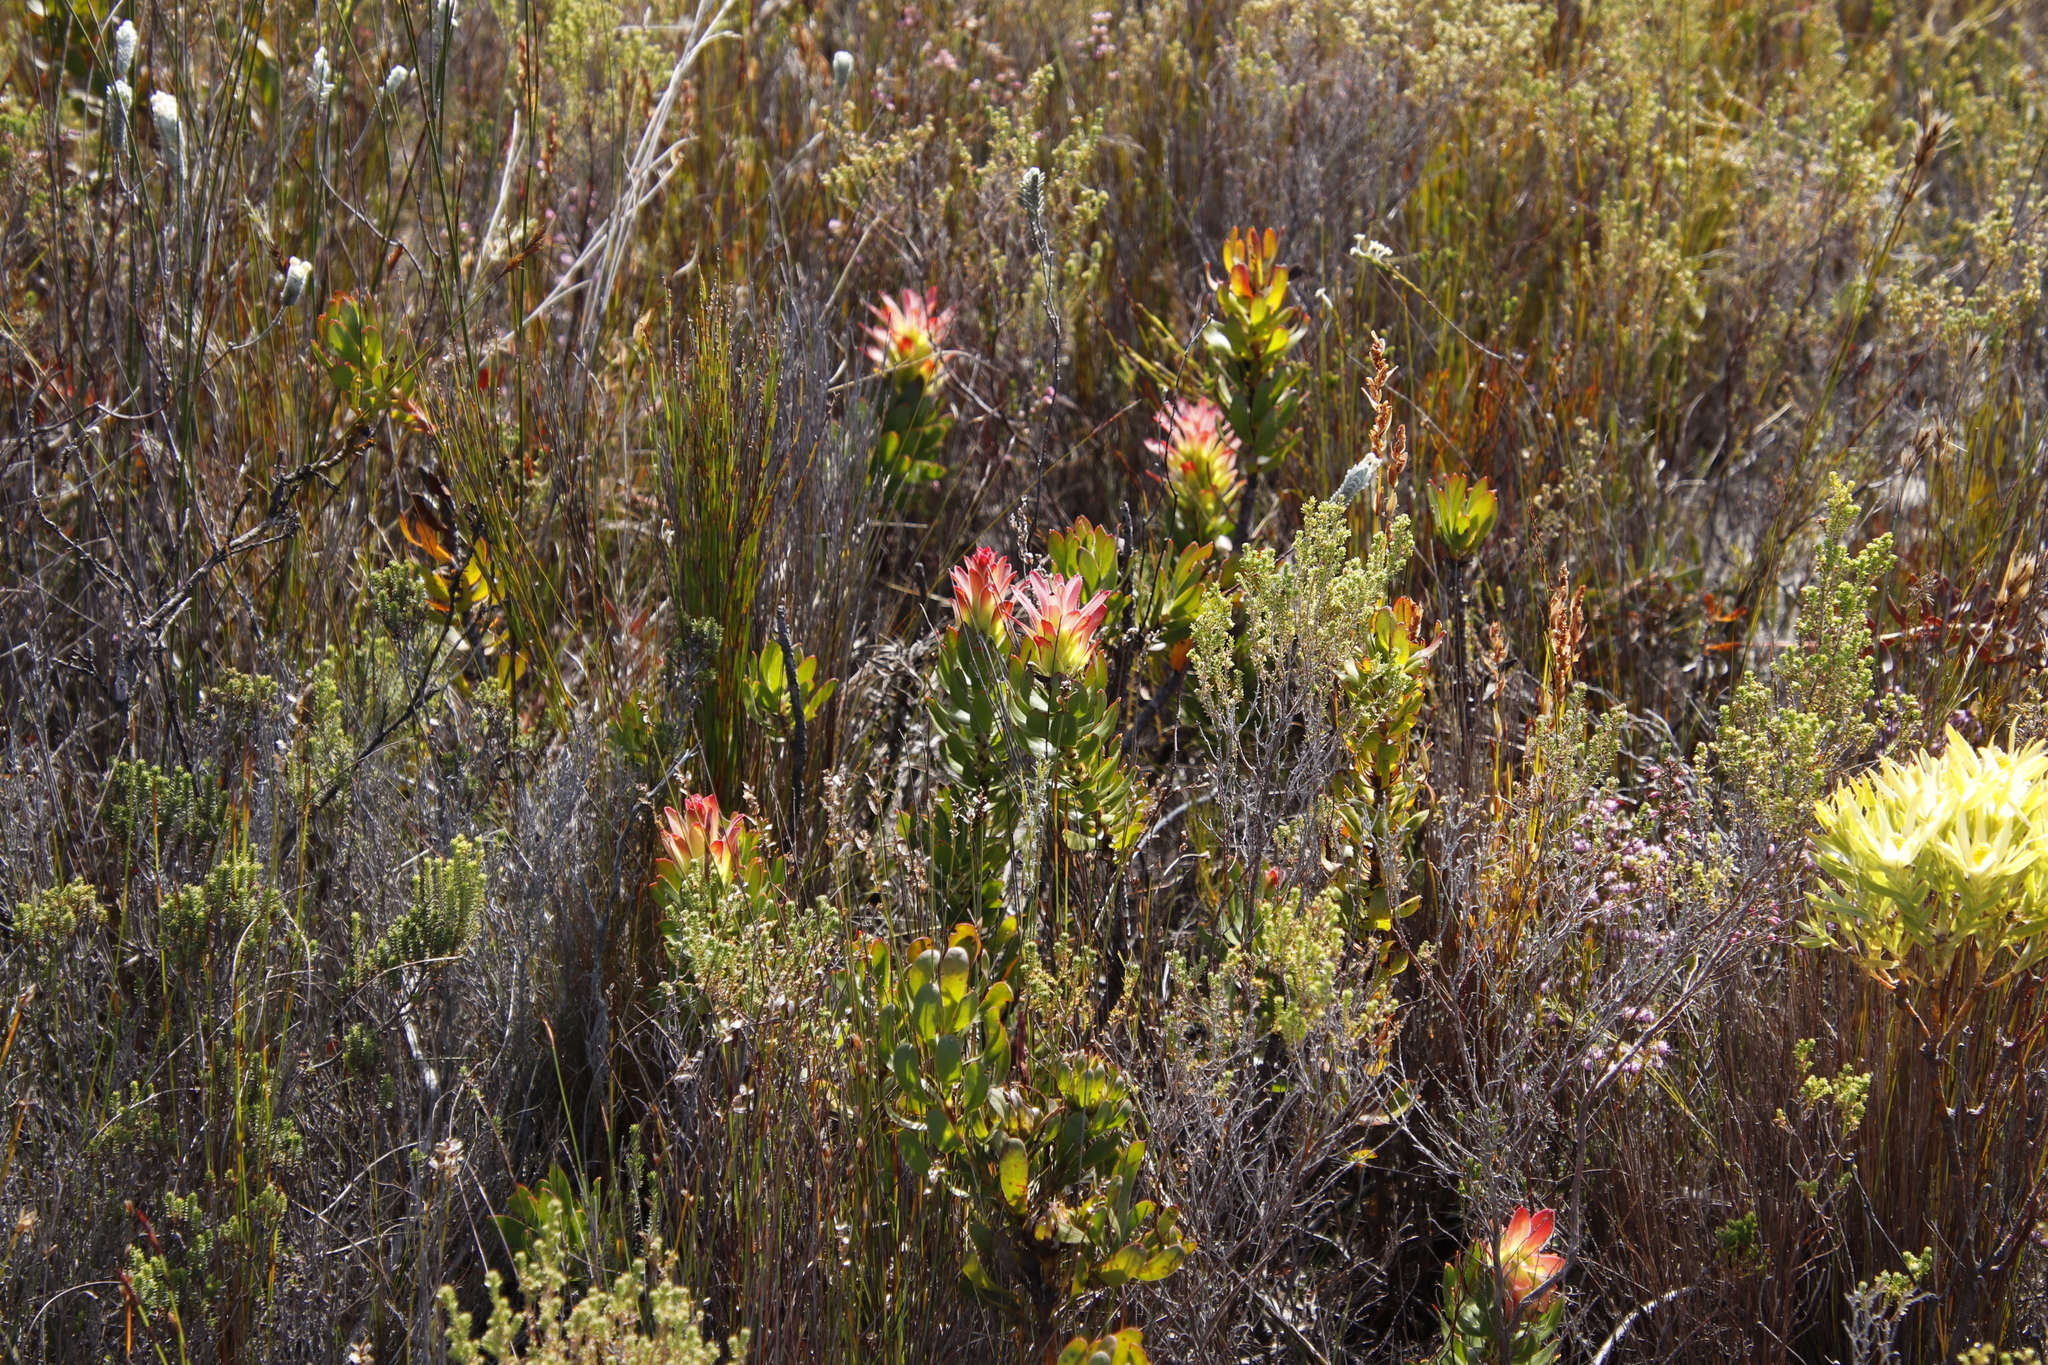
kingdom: Plantae
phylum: Tracheophyta
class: Magnoliopsida
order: Proteales
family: Proteaceae
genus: Mimetes
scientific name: Mimetes cucullatus
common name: Common pagoda
